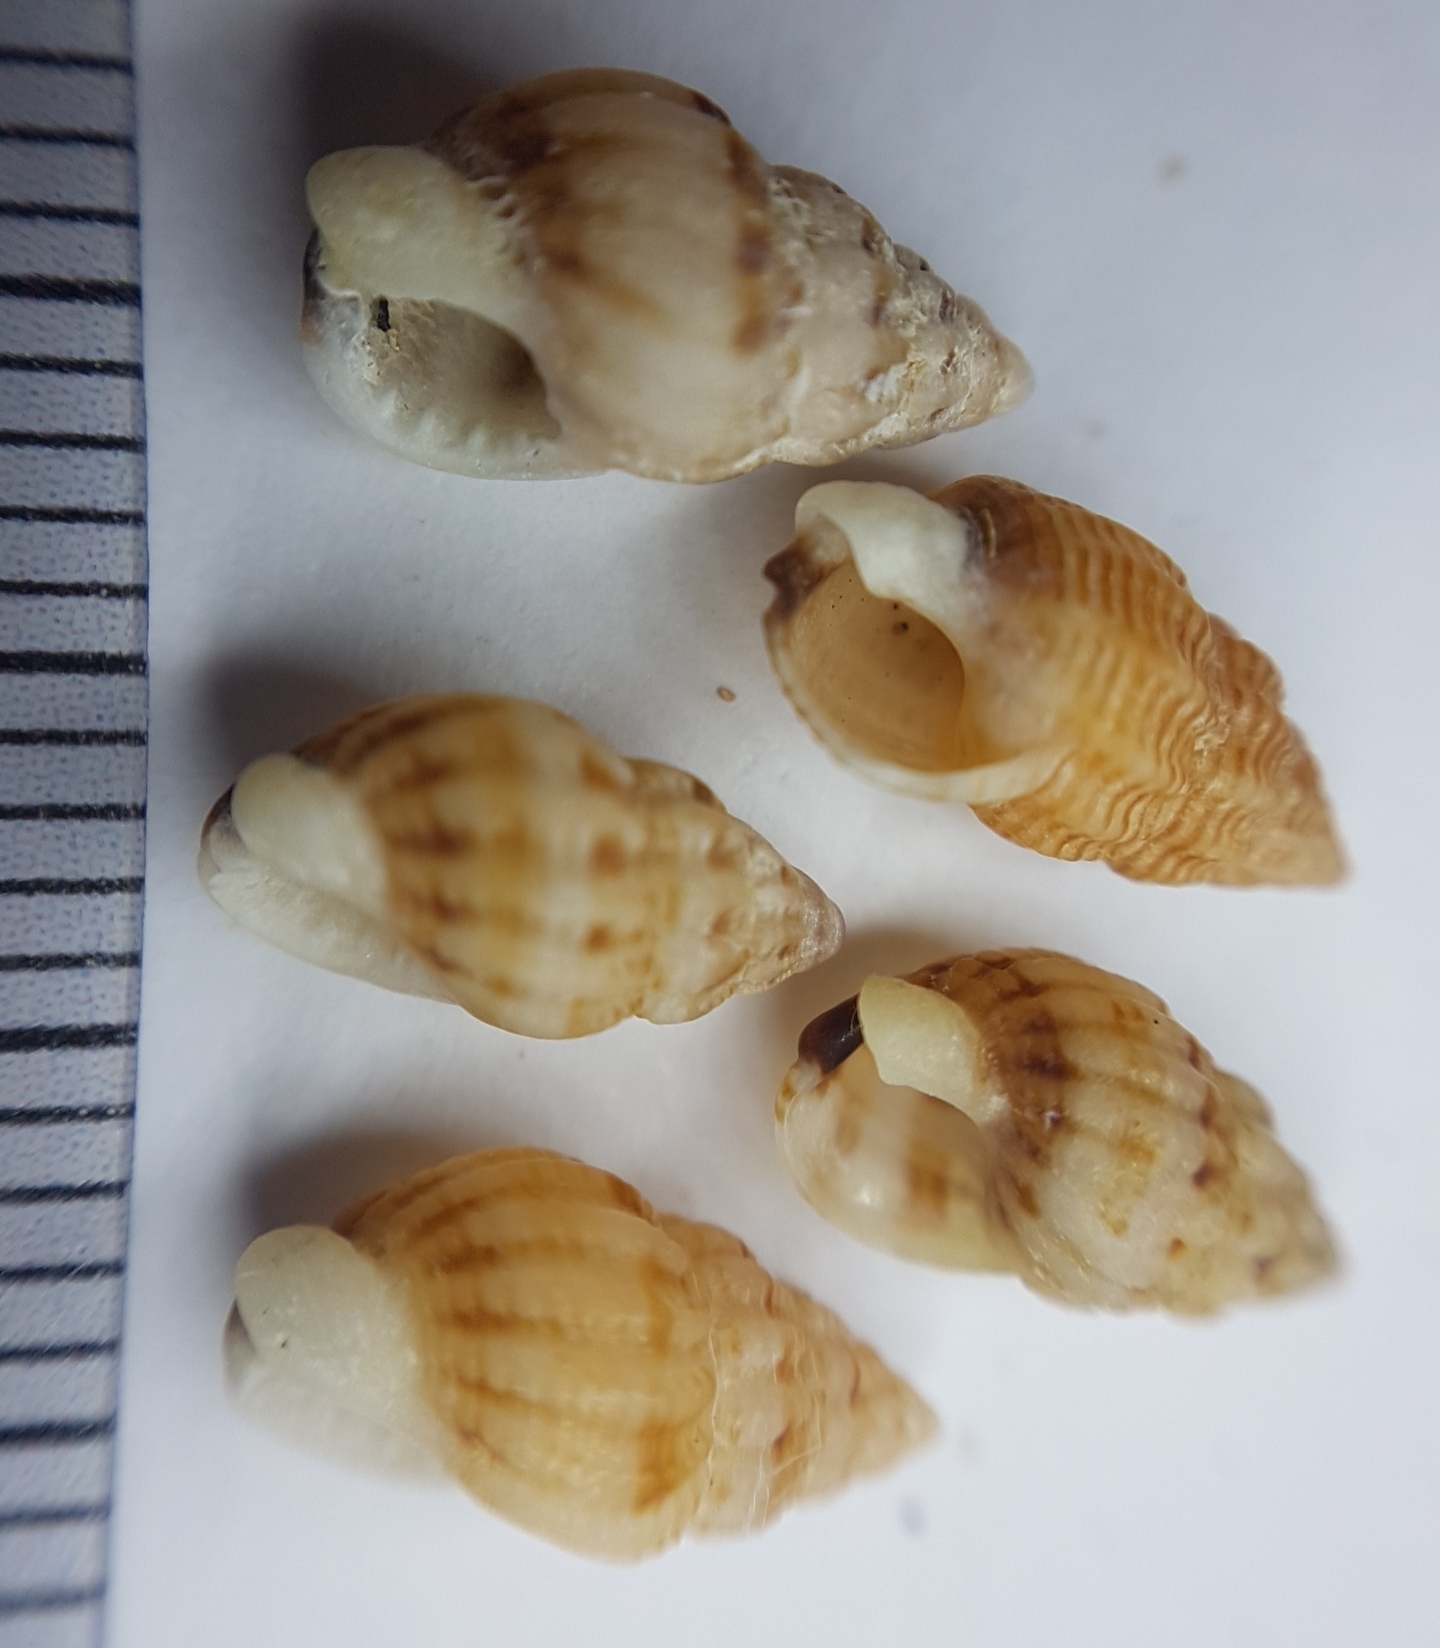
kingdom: Animalia
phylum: Mollusca
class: Gastropoda
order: Neogastropoda
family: Nassariidae
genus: Tritia
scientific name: Tritia incrassata
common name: Thick-lipped dog whelk
